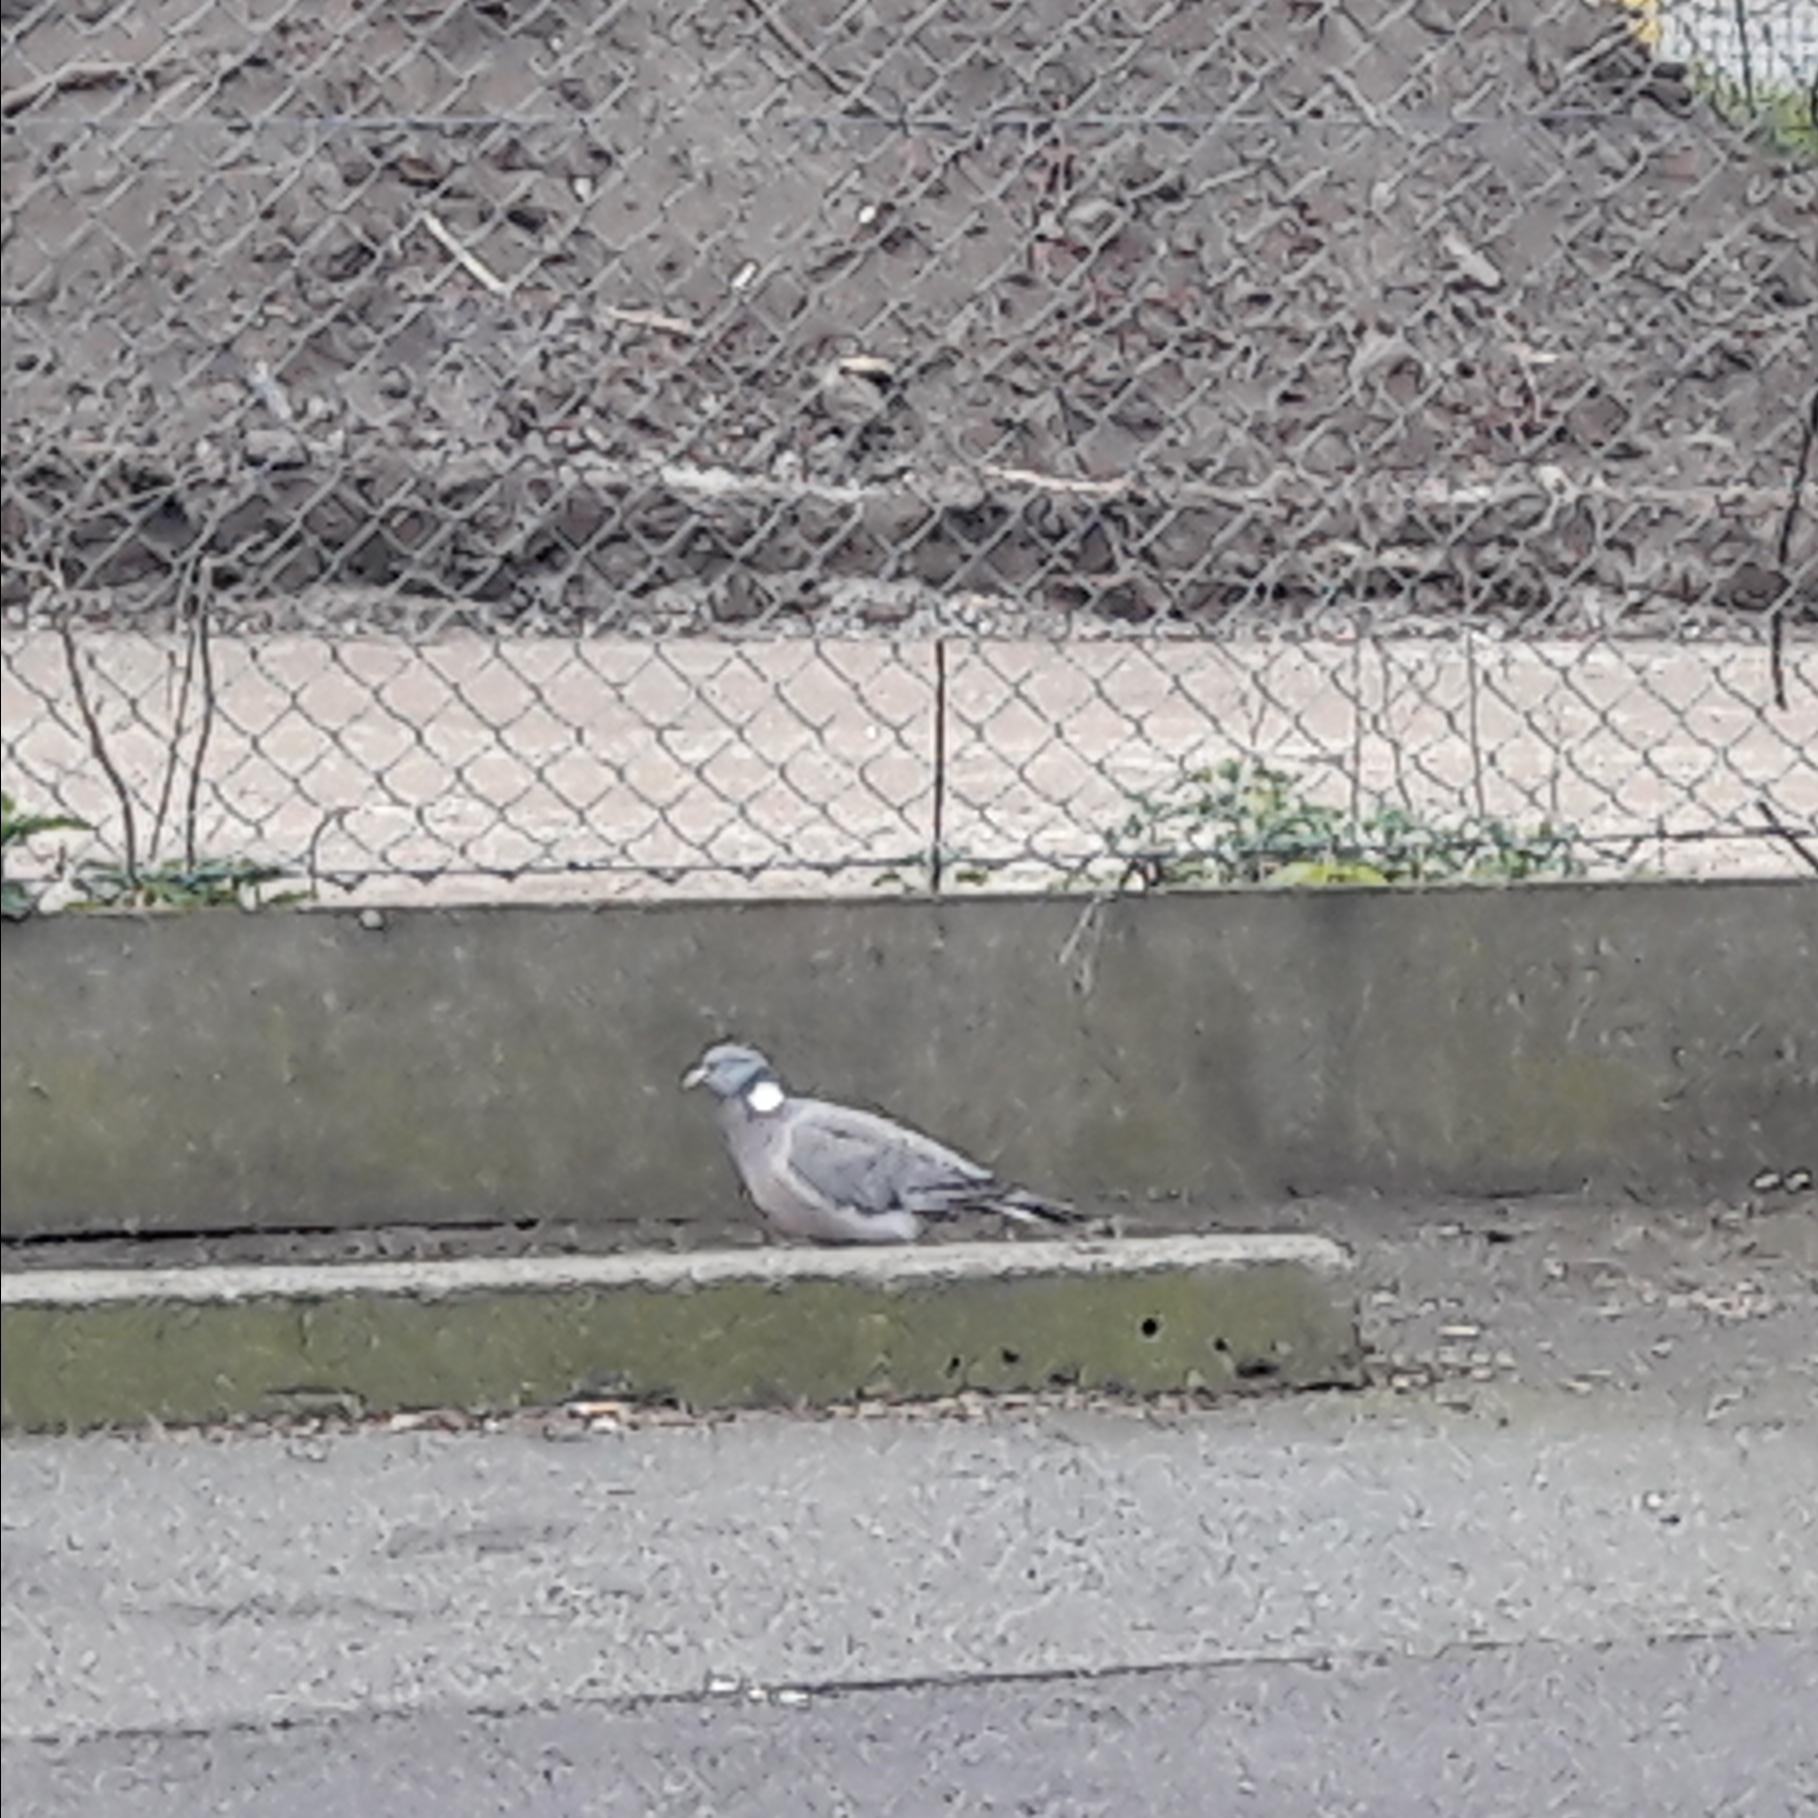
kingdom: Animalia
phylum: Chordata
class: Aves
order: Columbiformes
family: Columbidae
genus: Columba
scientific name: Columba palumbus
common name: Common wood pigeon
